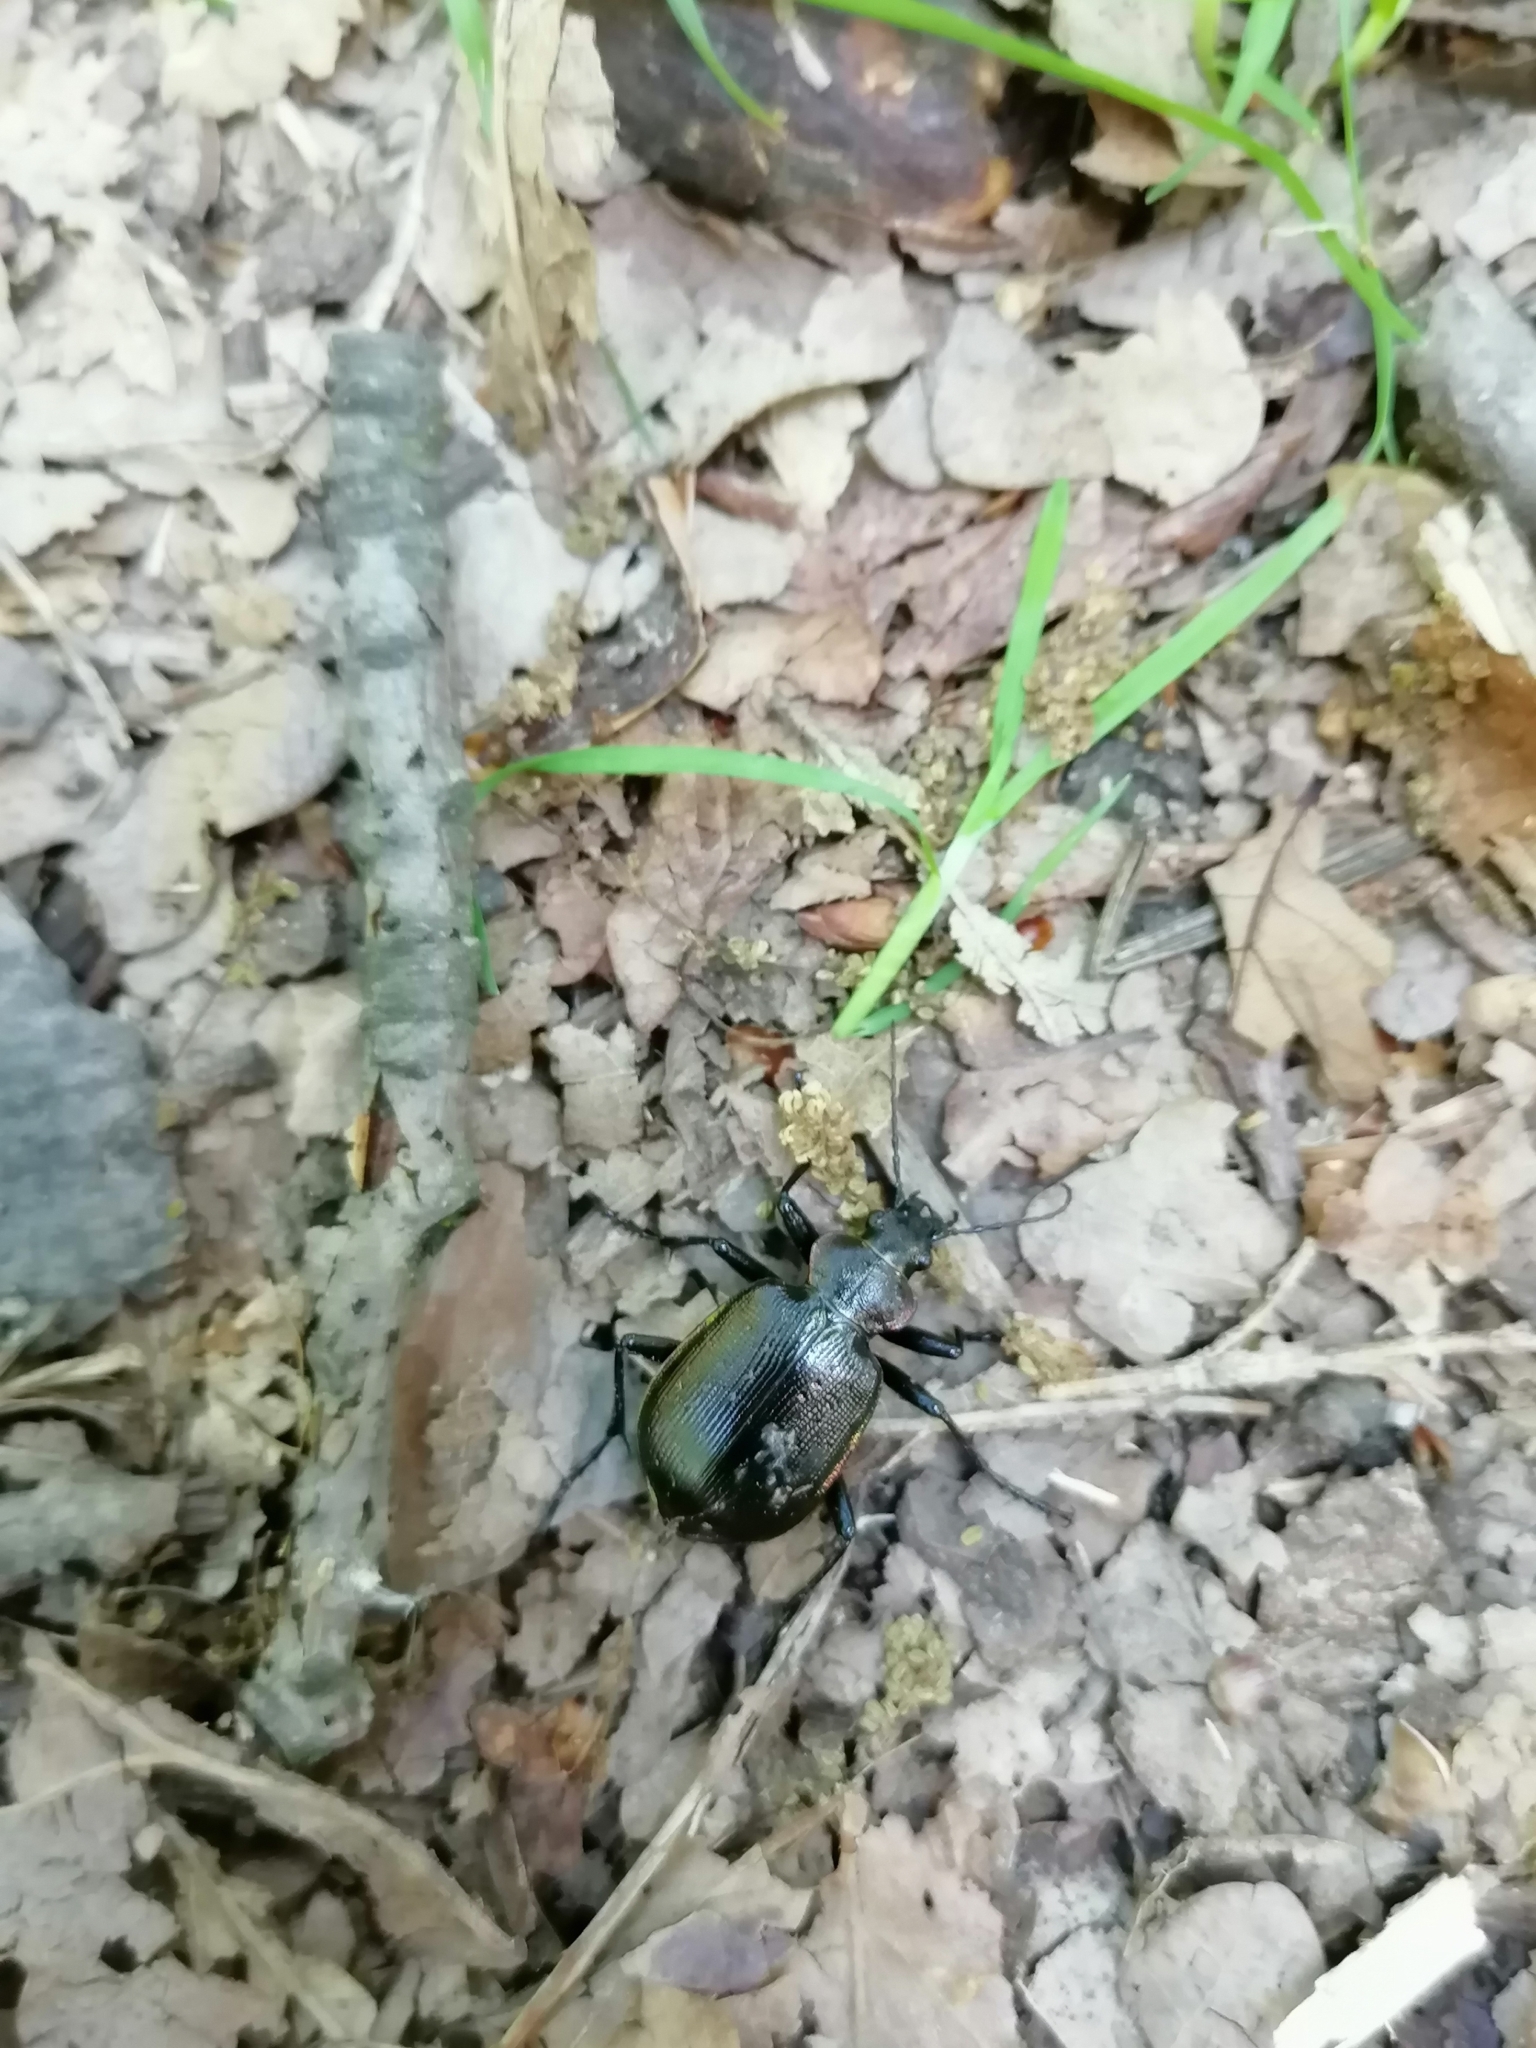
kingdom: Animalia
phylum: Arthropoda
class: Insecta
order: Coleoptera
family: Carabidae
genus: Calosoma
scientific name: Calosoma inquisitor
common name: Caterpillar-hunter
